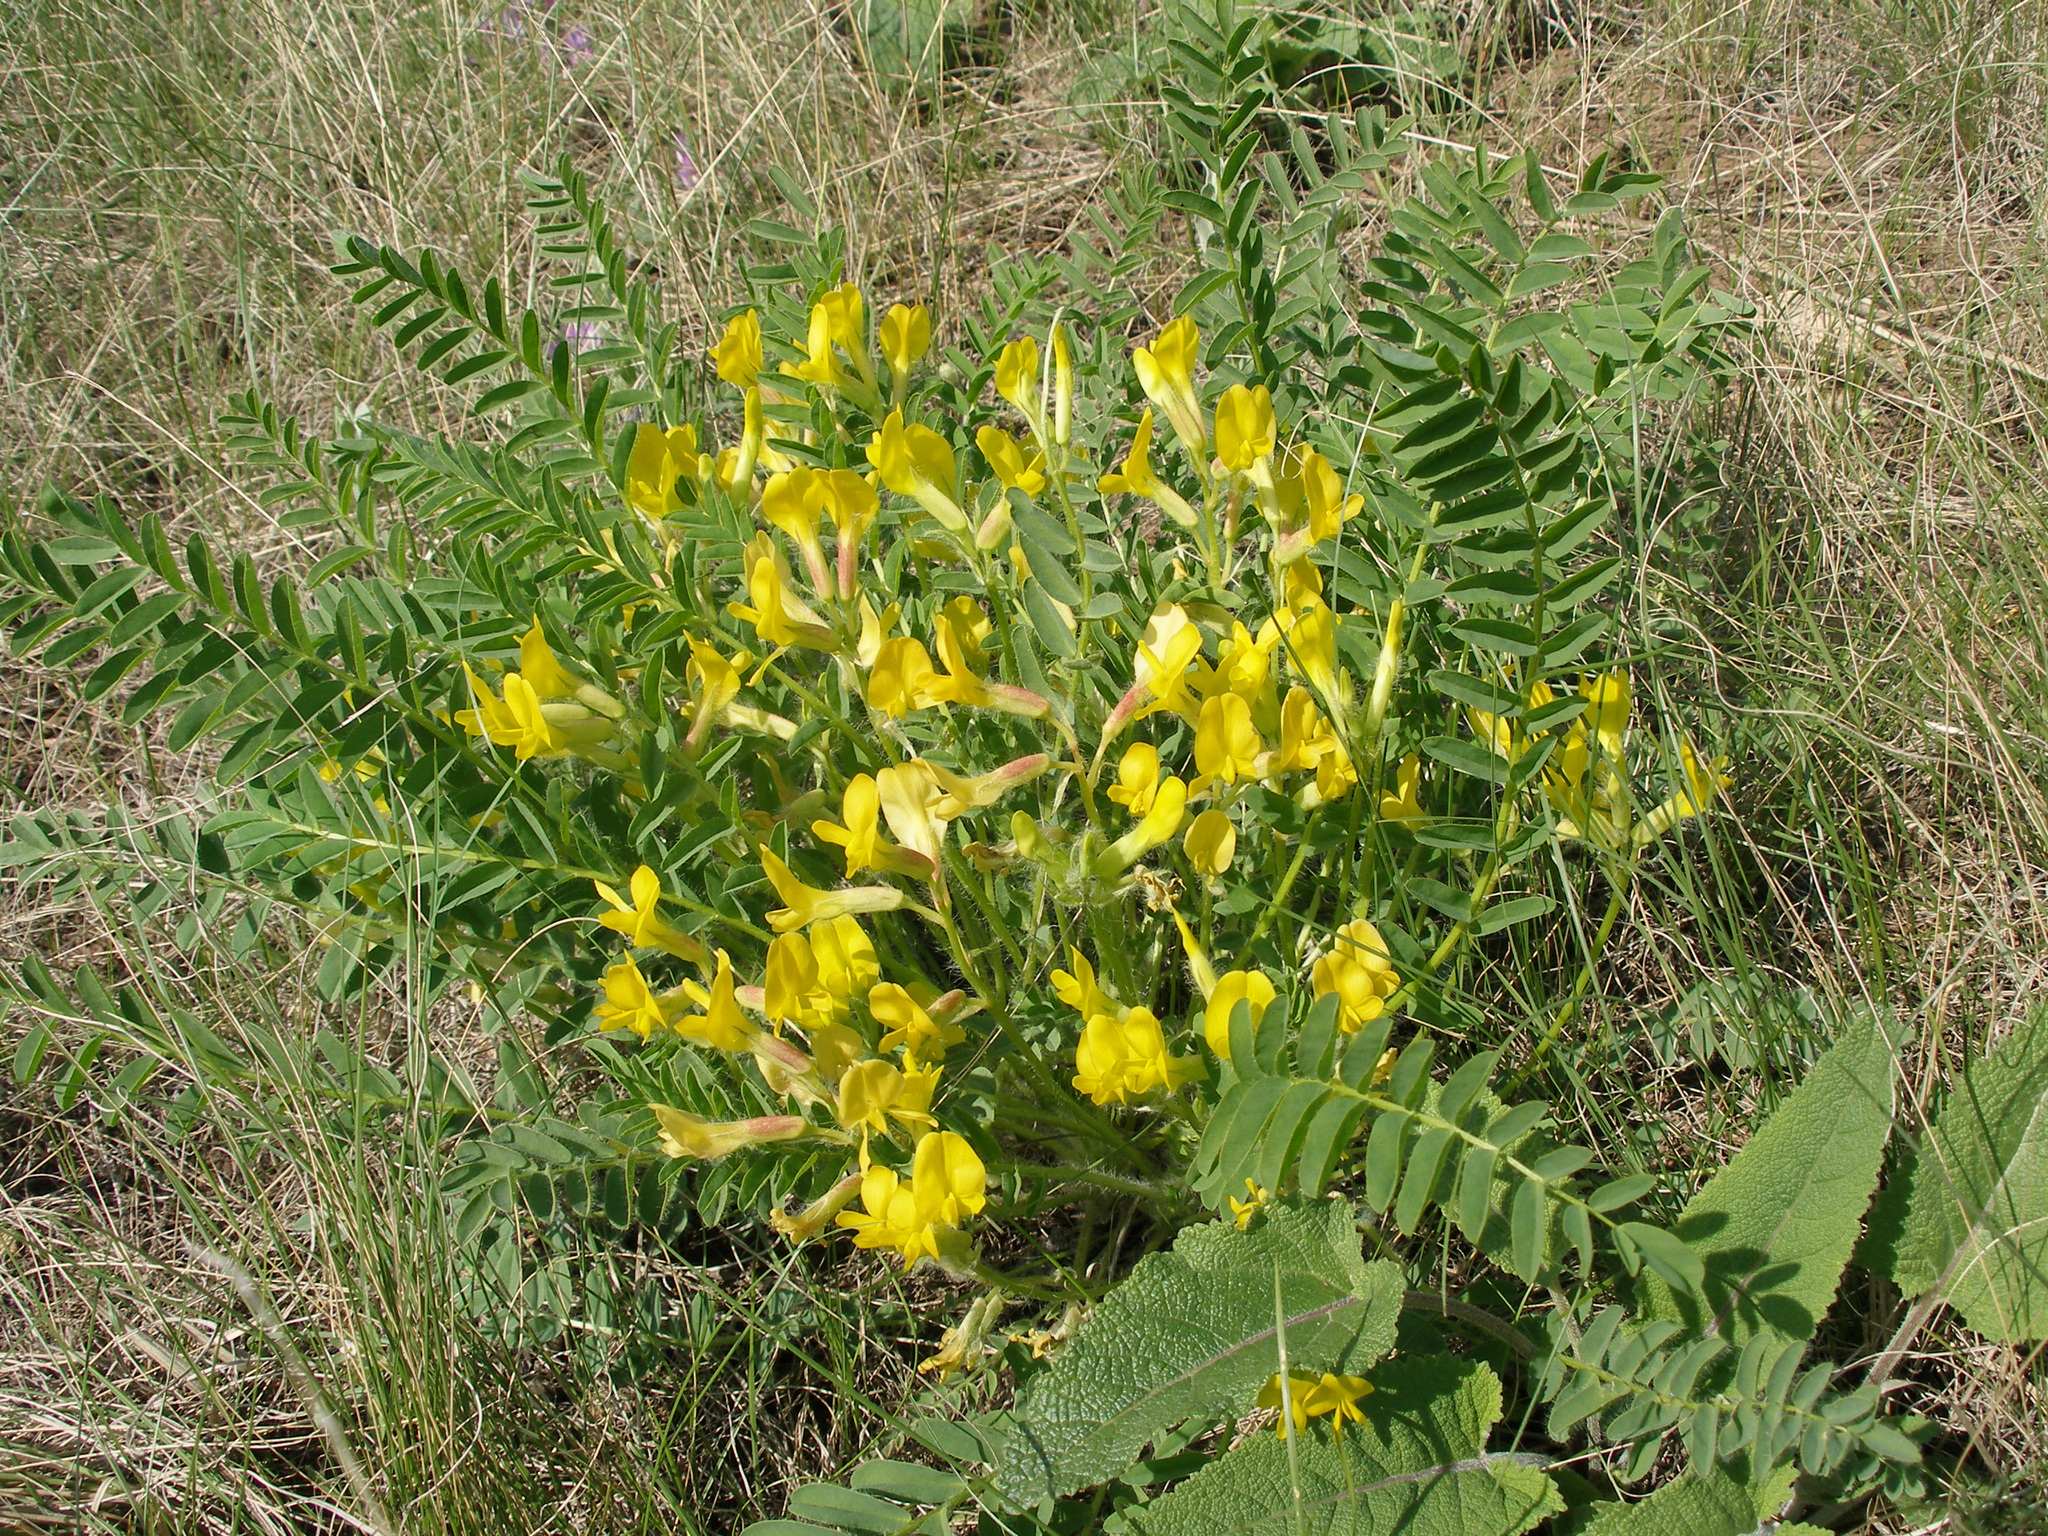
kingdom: Plantae
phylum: Tracheophyta
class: Magnoliopsida
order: Fabales
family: Fabaceae
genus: Astragalus
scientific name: Astragalus wolgensis
